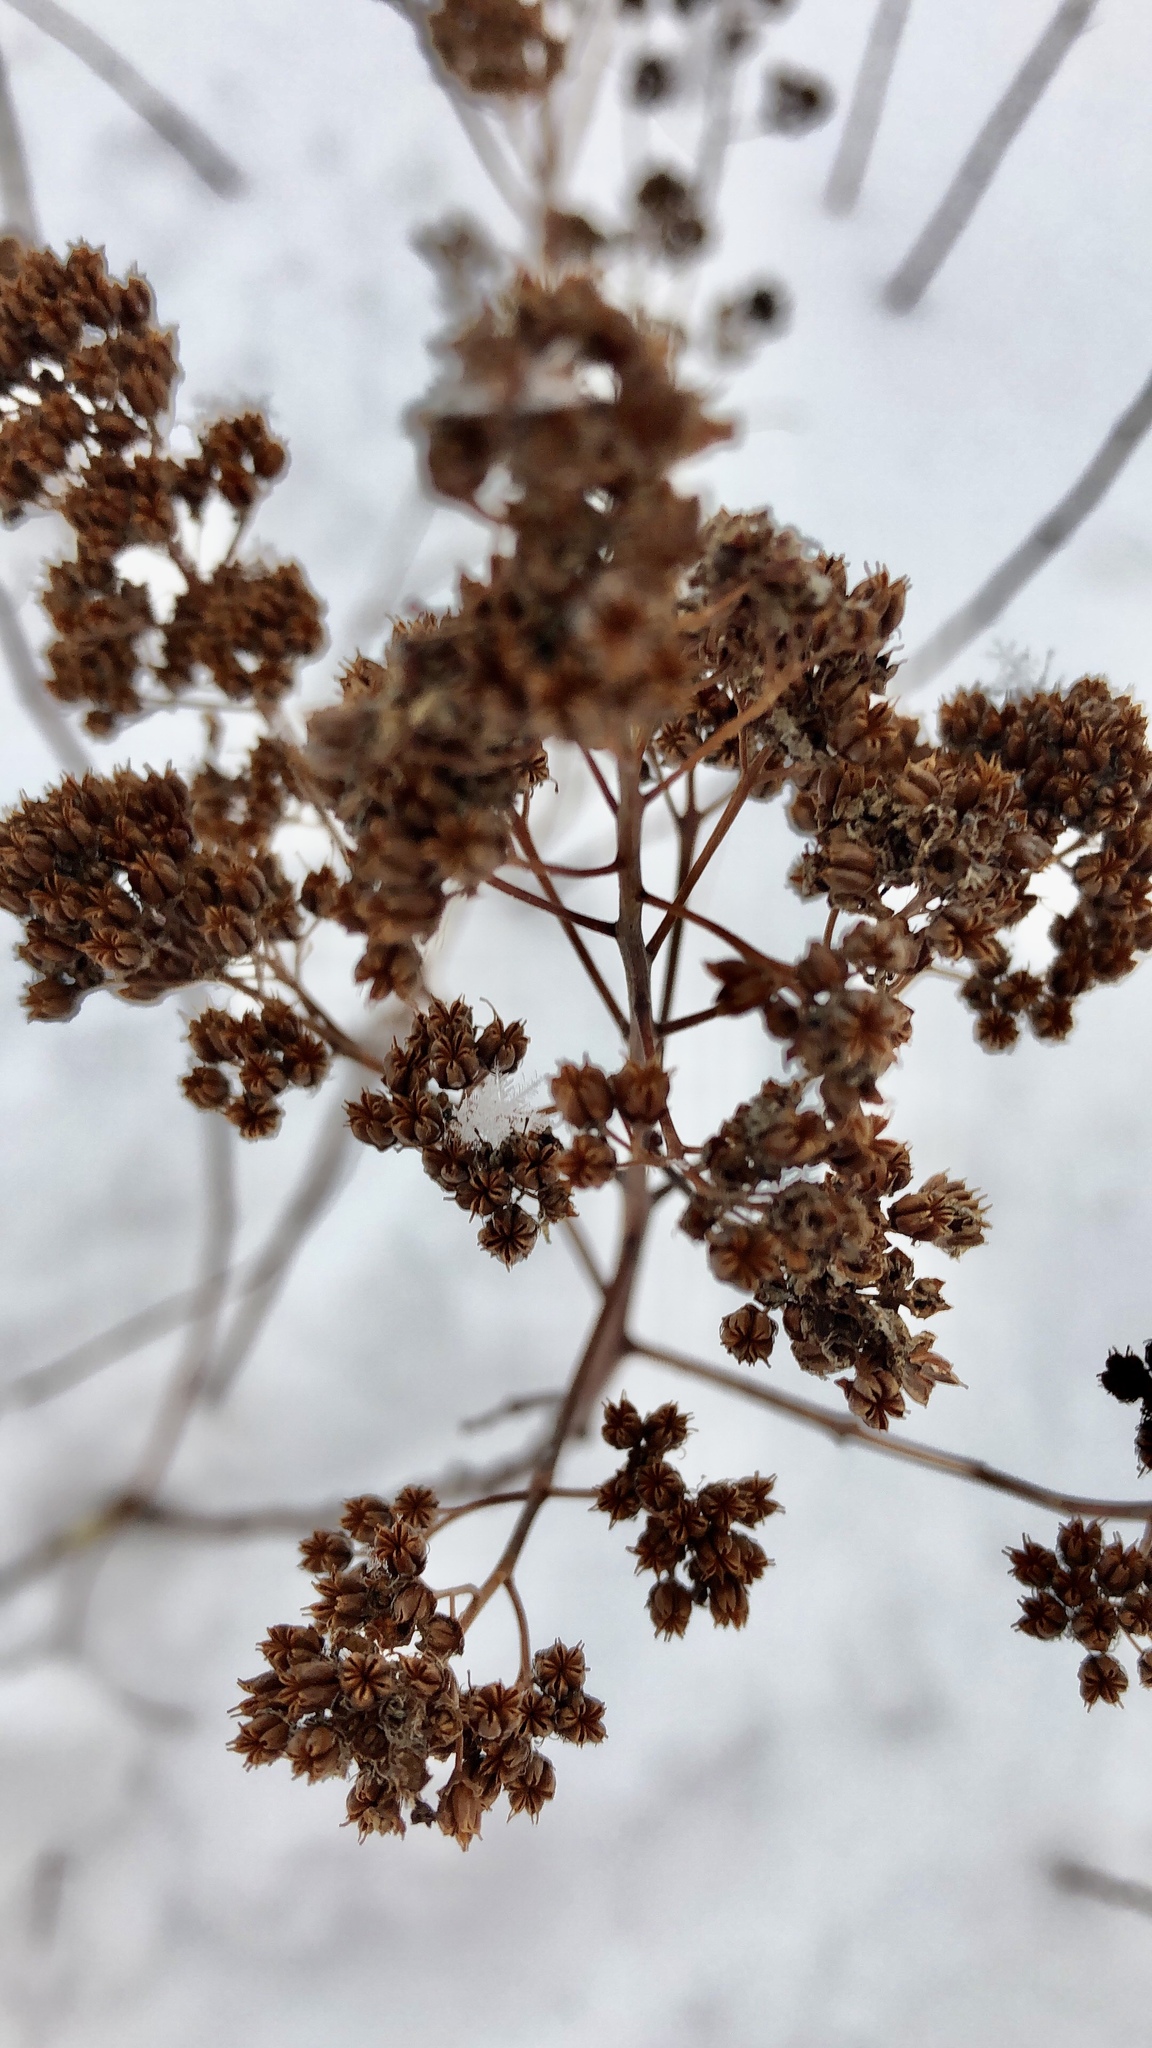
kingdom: Plantae
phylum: Tracheophyta
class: Magnoliopsida
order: Rosales
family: Rosaceae
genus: Spiraea
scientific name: Spiraea alba
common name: Pale bridewort
